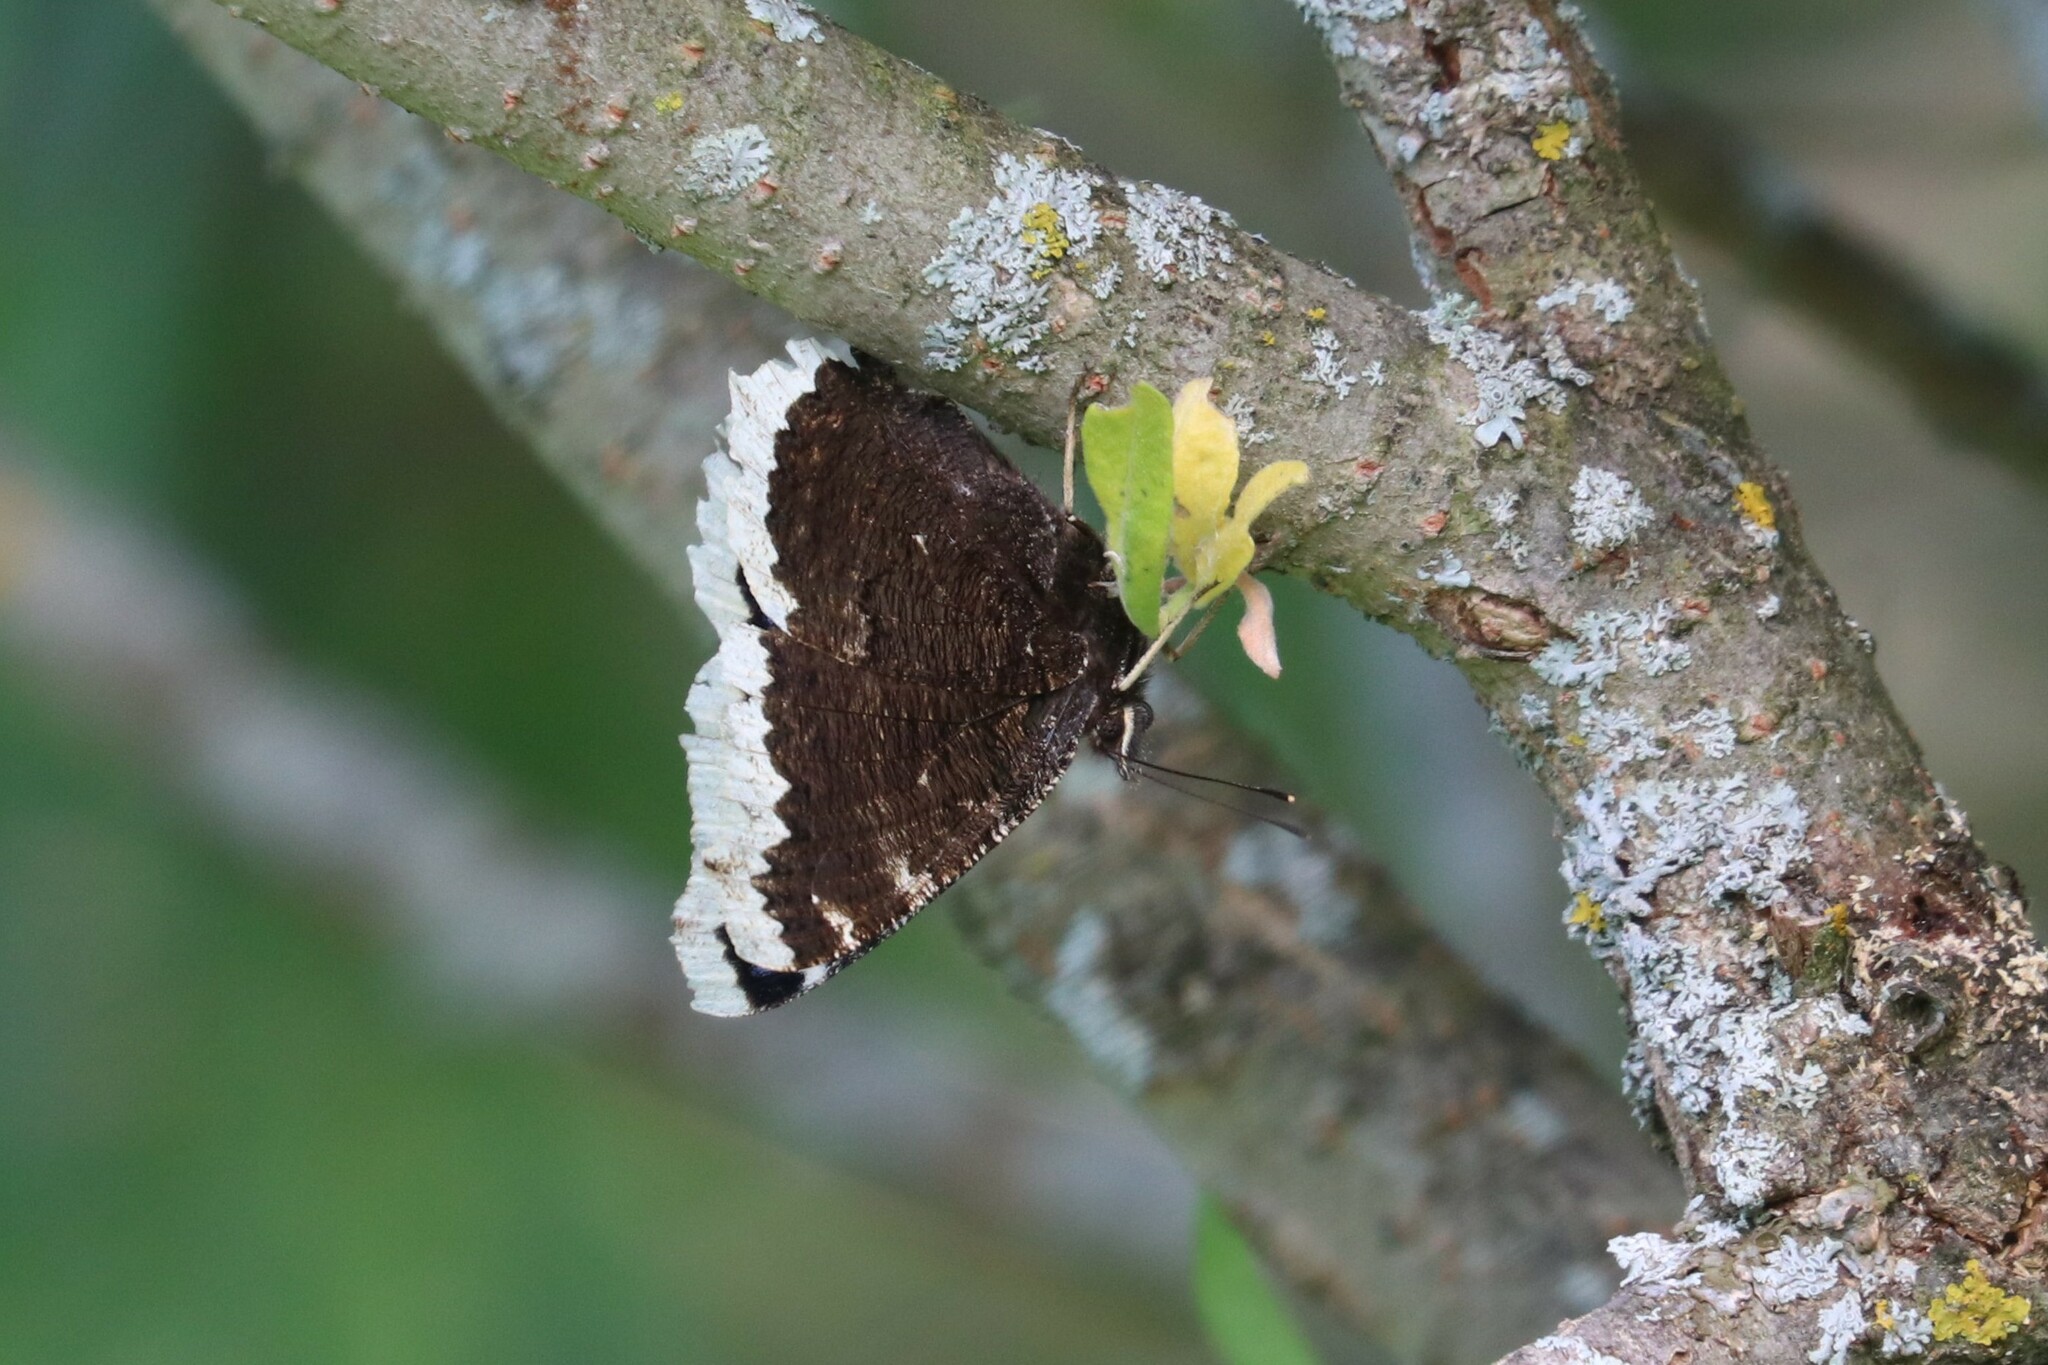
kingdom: Animalia
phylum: Arthropoda
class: Insecta
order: Lepidoptera
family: Nymphalidae
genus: Nymphalis
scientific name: Nymphalis antiopa
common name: Camberwell beauty
